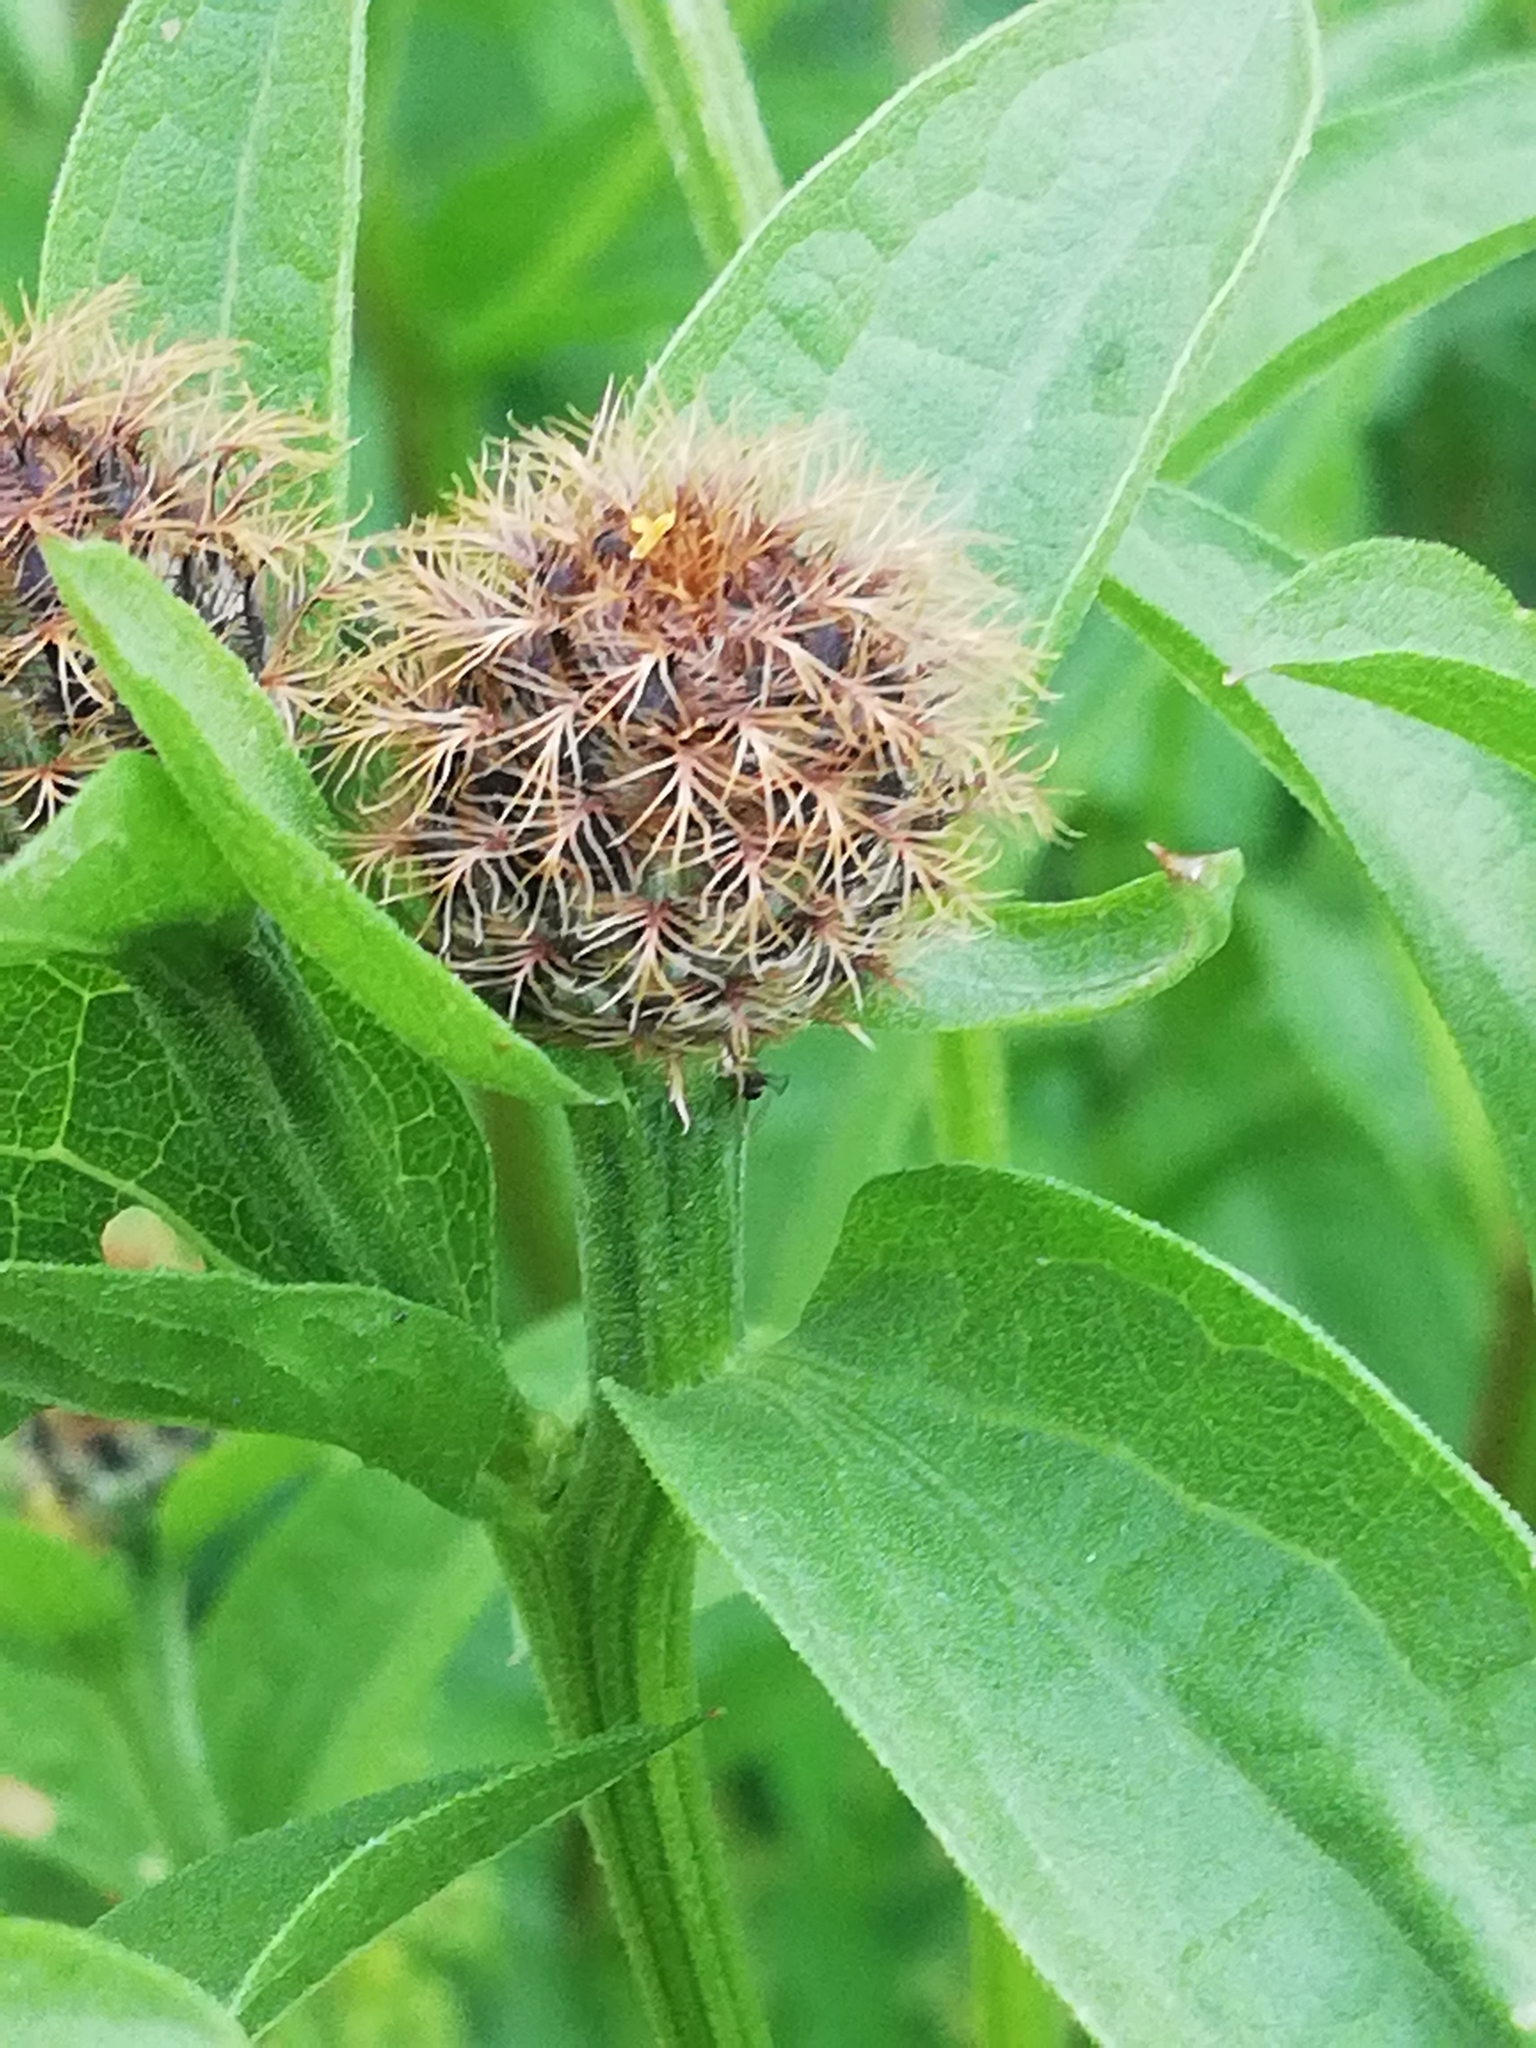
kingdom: Plantae
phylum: Tracheophyta
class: Magnoliopsida
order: Asterales
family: Asteraceae
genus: Centaurea
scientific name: Centaurea pseudophrygia
